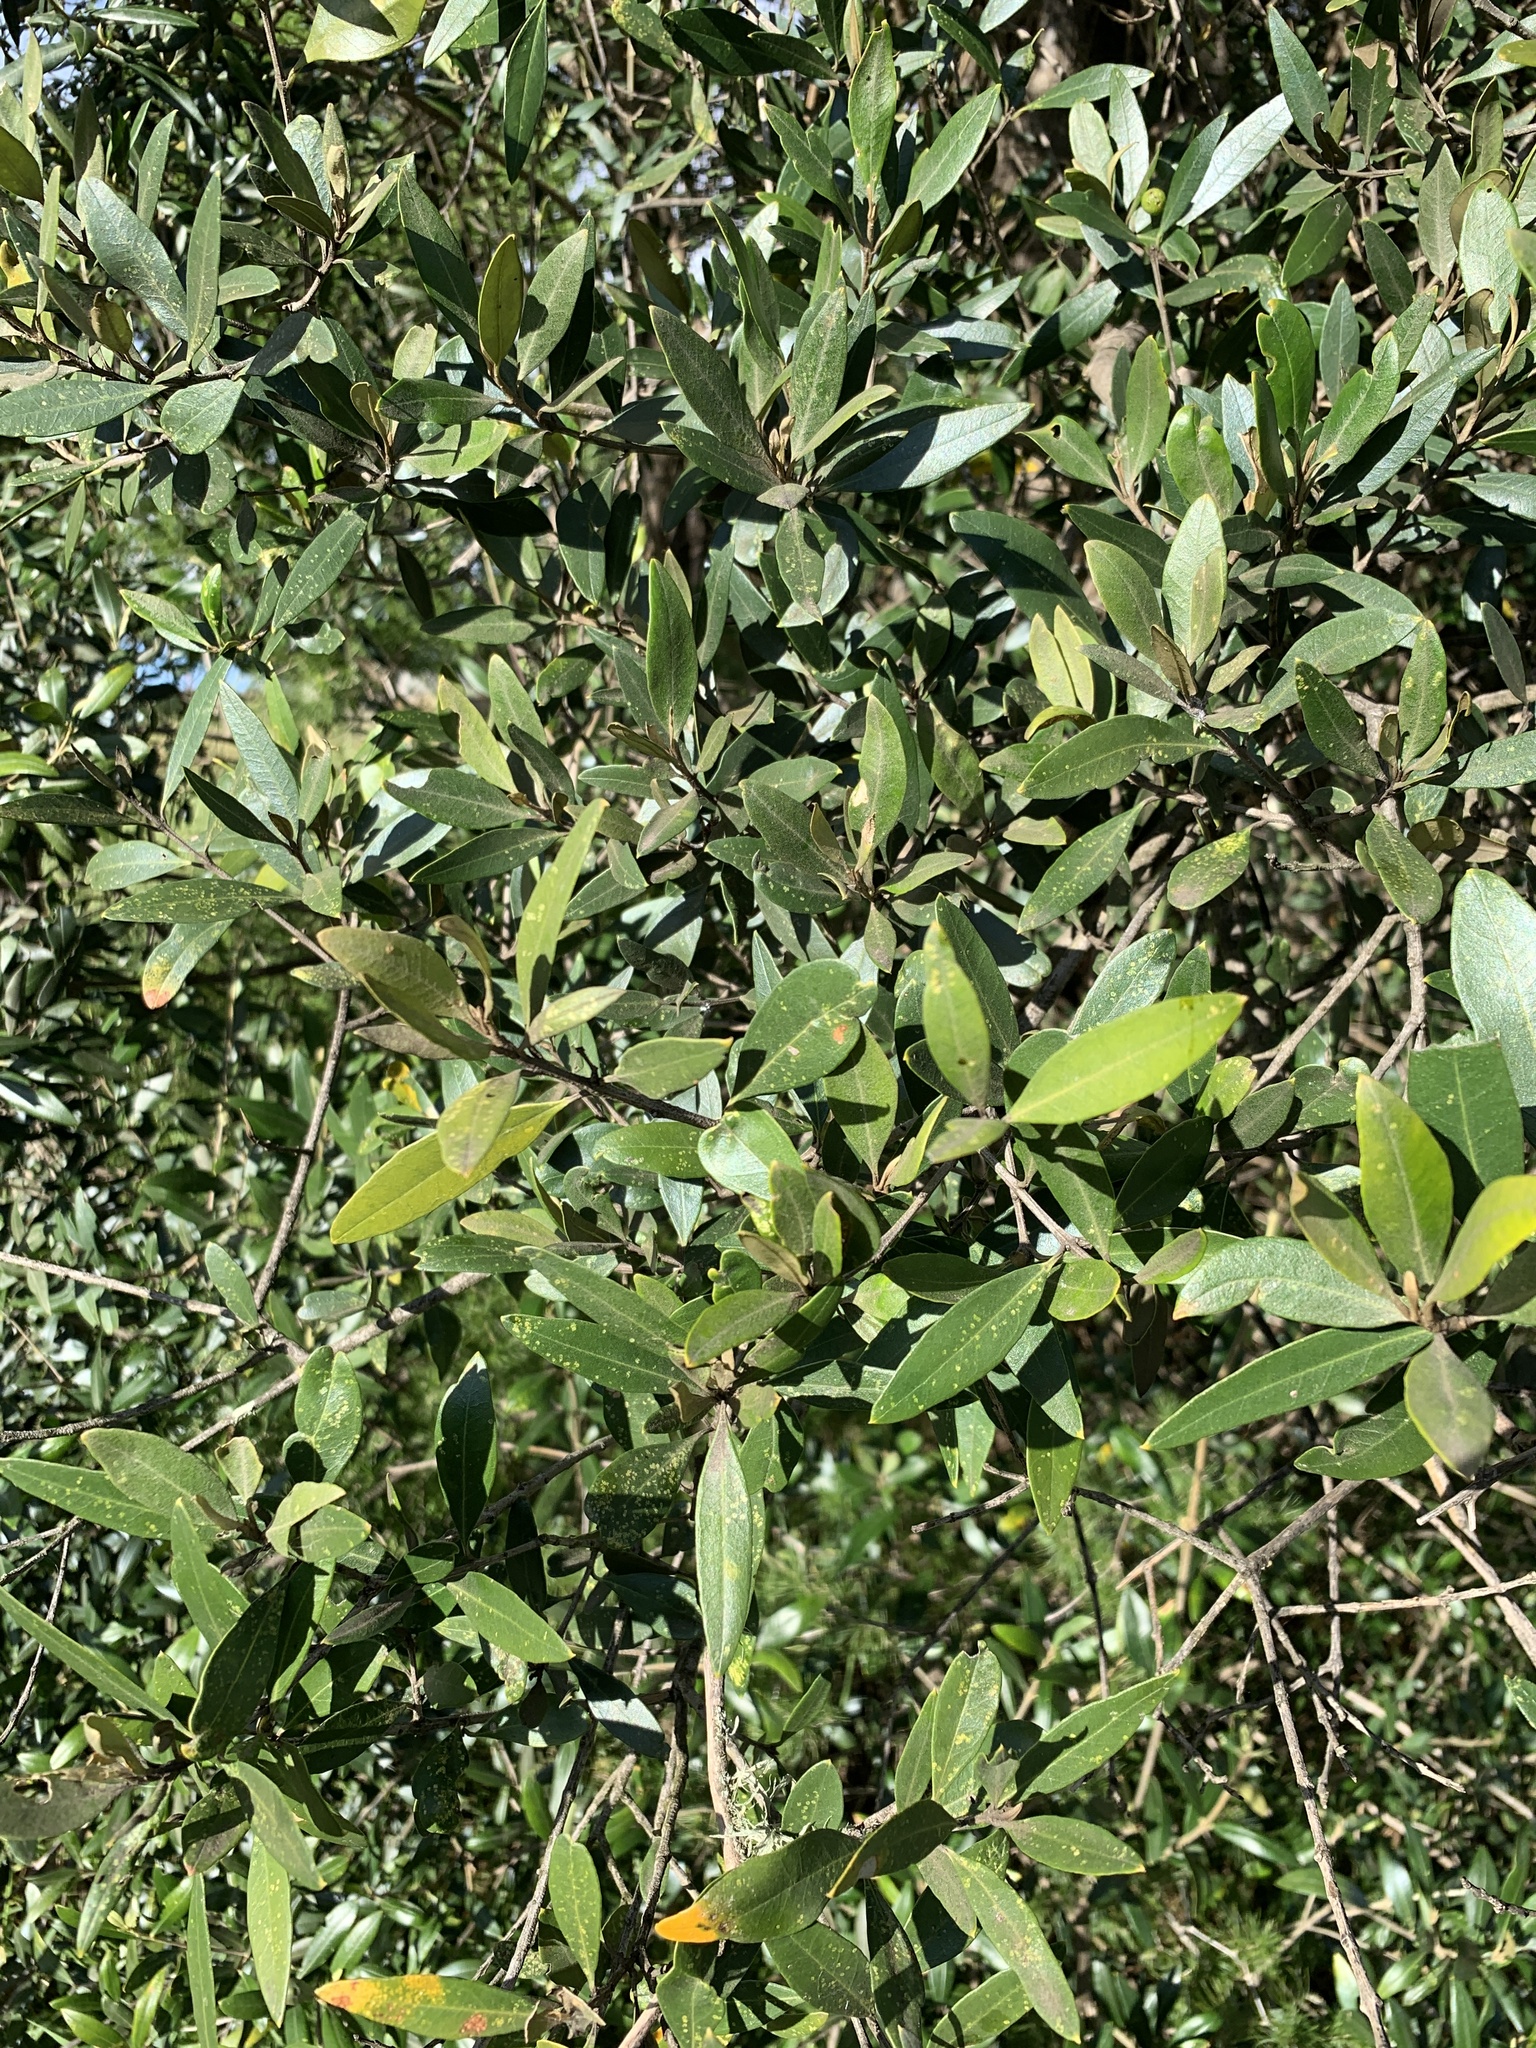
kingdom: Plantae
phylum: Tracheophyta
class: Magnoliopsida
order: Lamiales
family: Oleaceae
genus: Olea
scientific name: Olea europaea
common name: Olive
